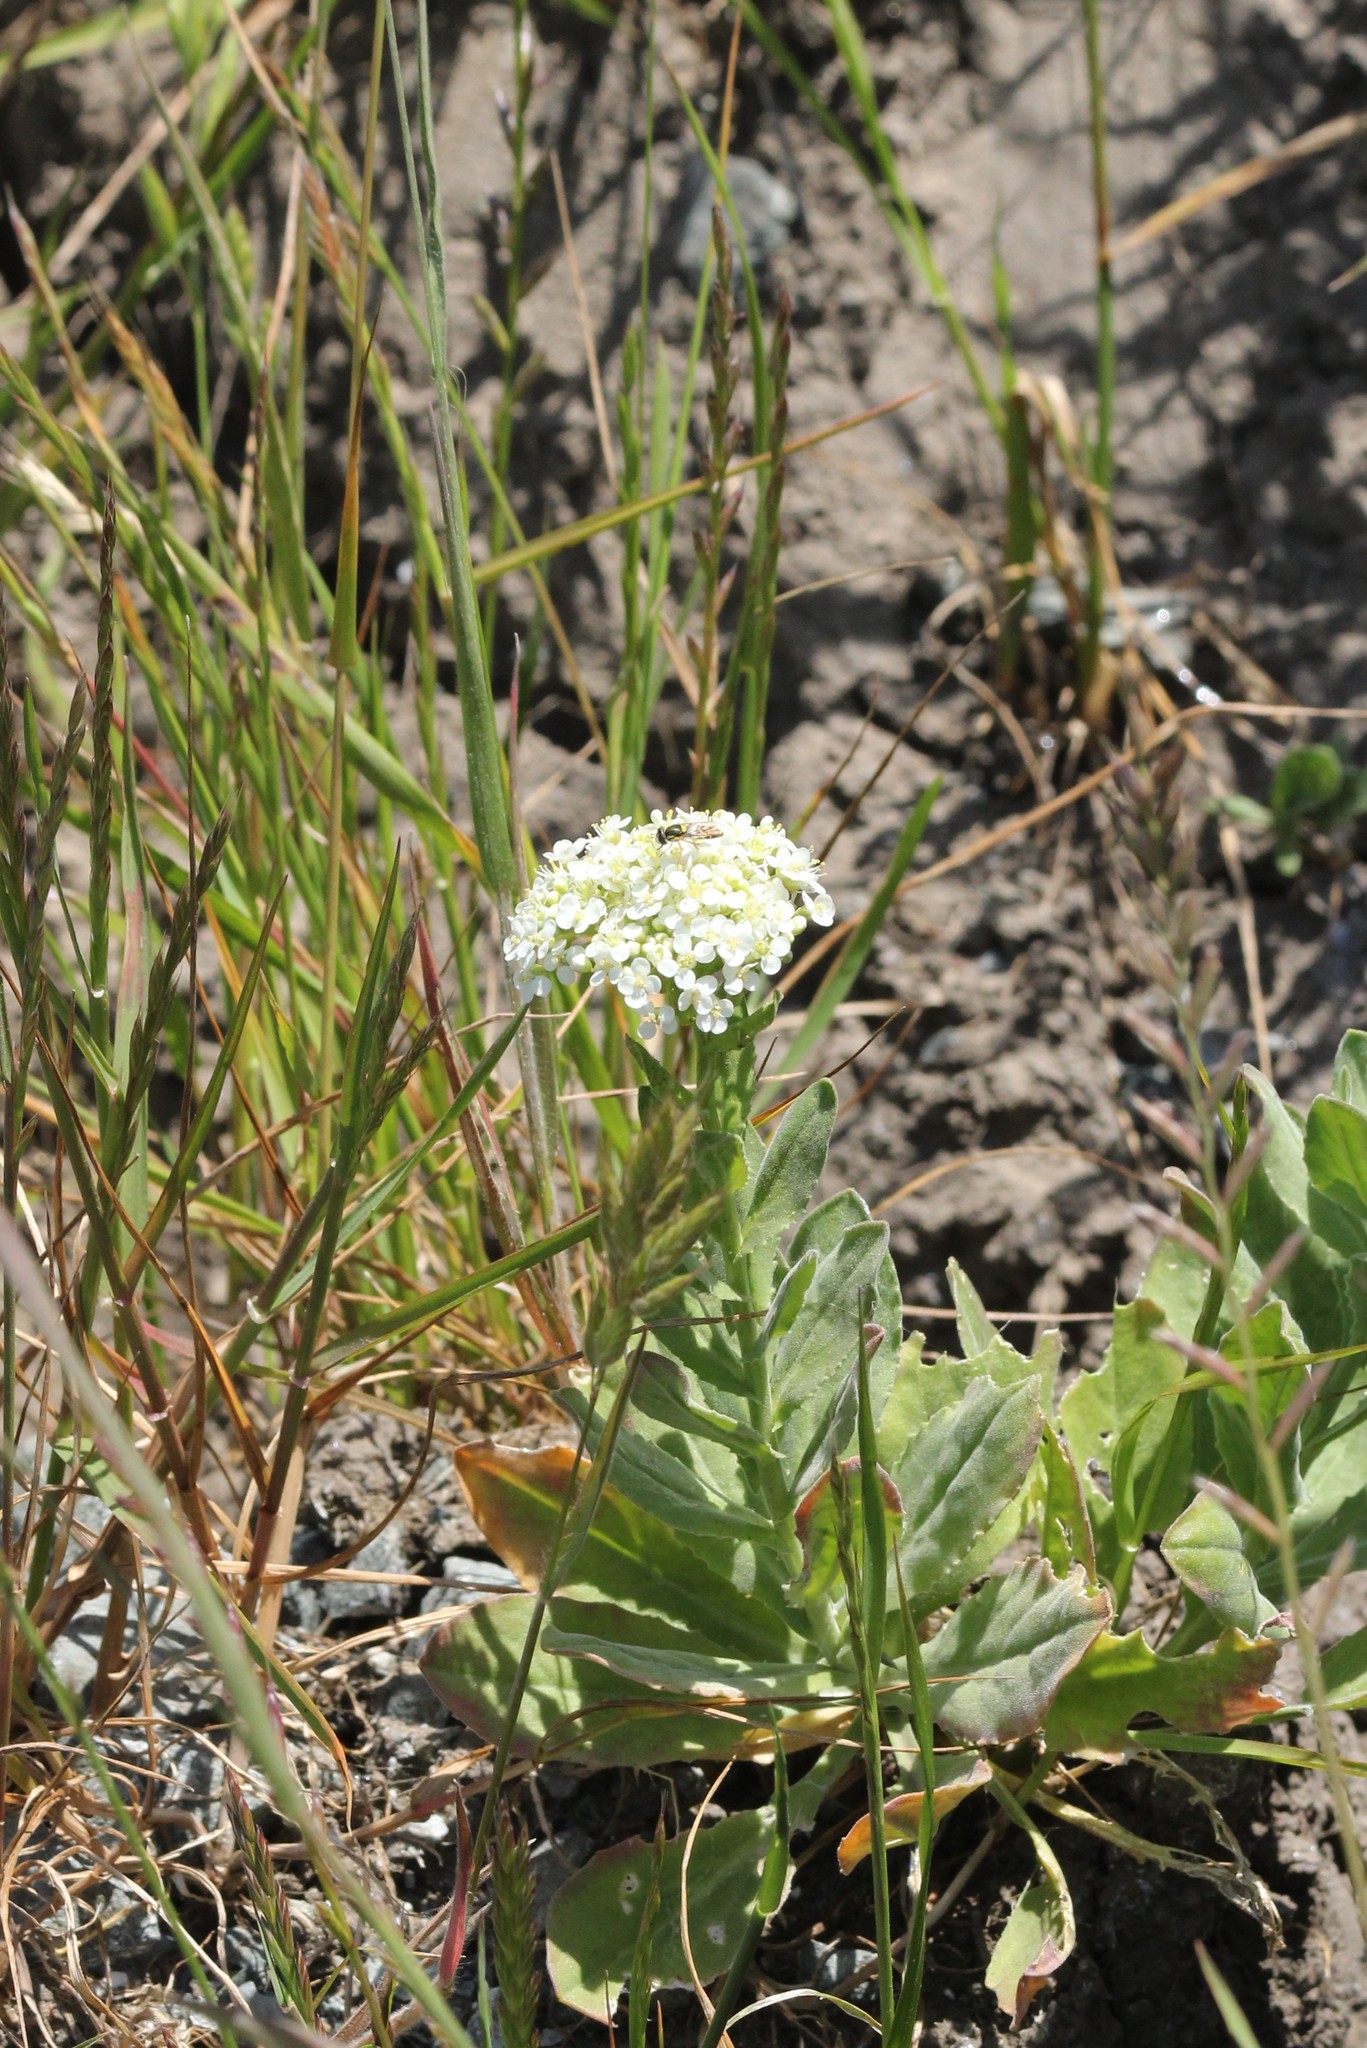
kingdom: Plantae
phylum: Tracheophyta
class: Magnoliopsida
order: Asterales
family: Asteraceae
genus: Achillea
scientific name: Achillea millefolium
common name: Yarrow
